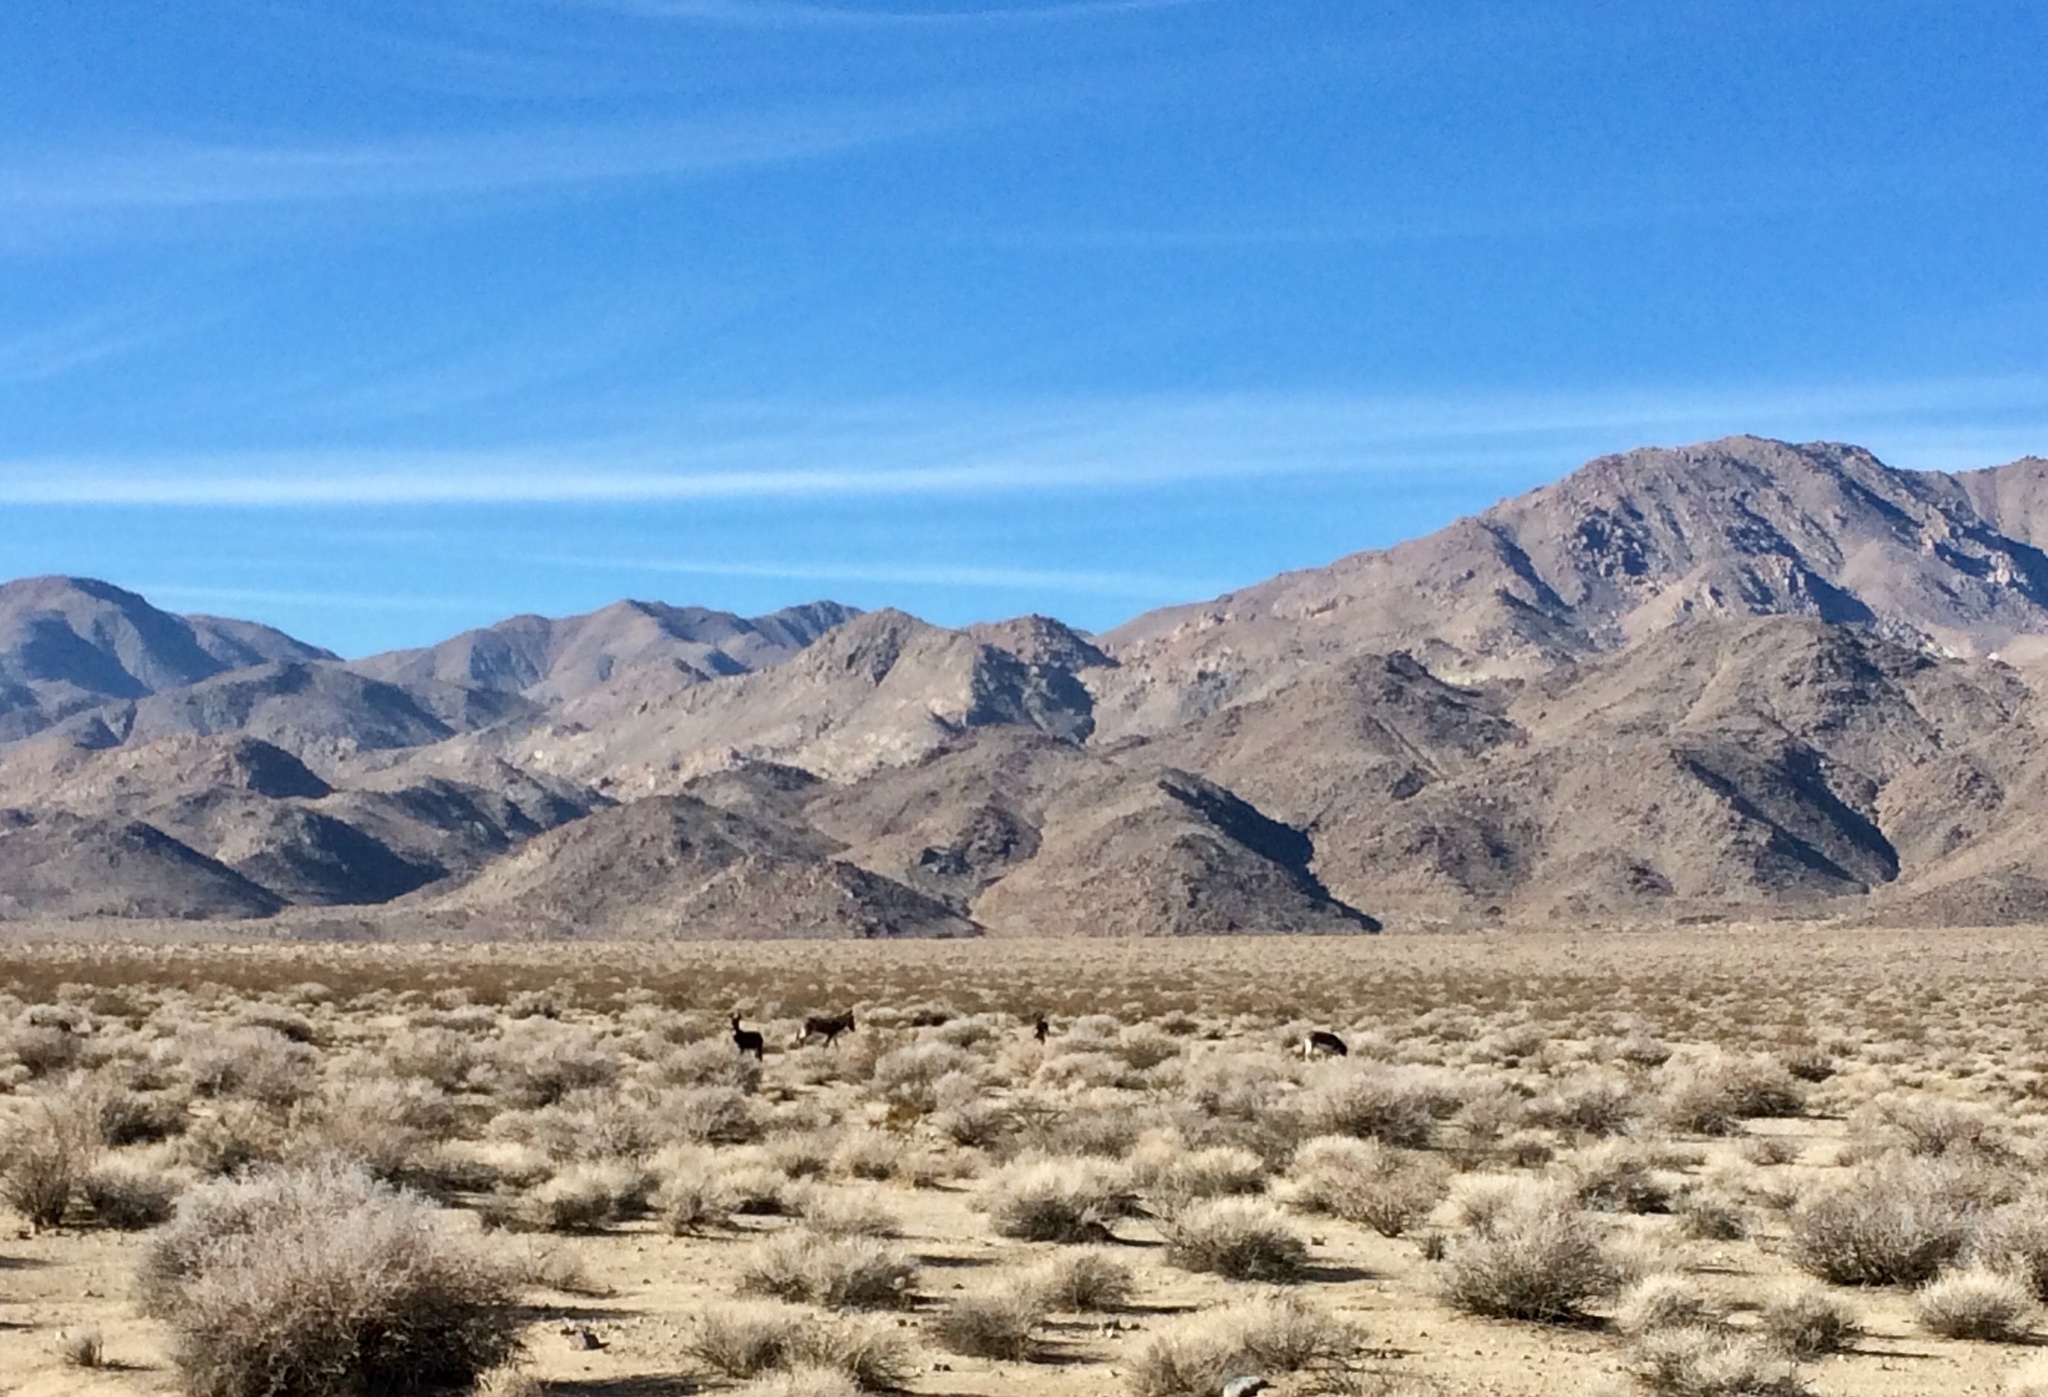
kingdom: Animalia
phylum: Chordata
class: Mammalia
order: Perissodactyla
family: Equidae
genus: Equus
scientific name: Equus asinus
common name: Ass
